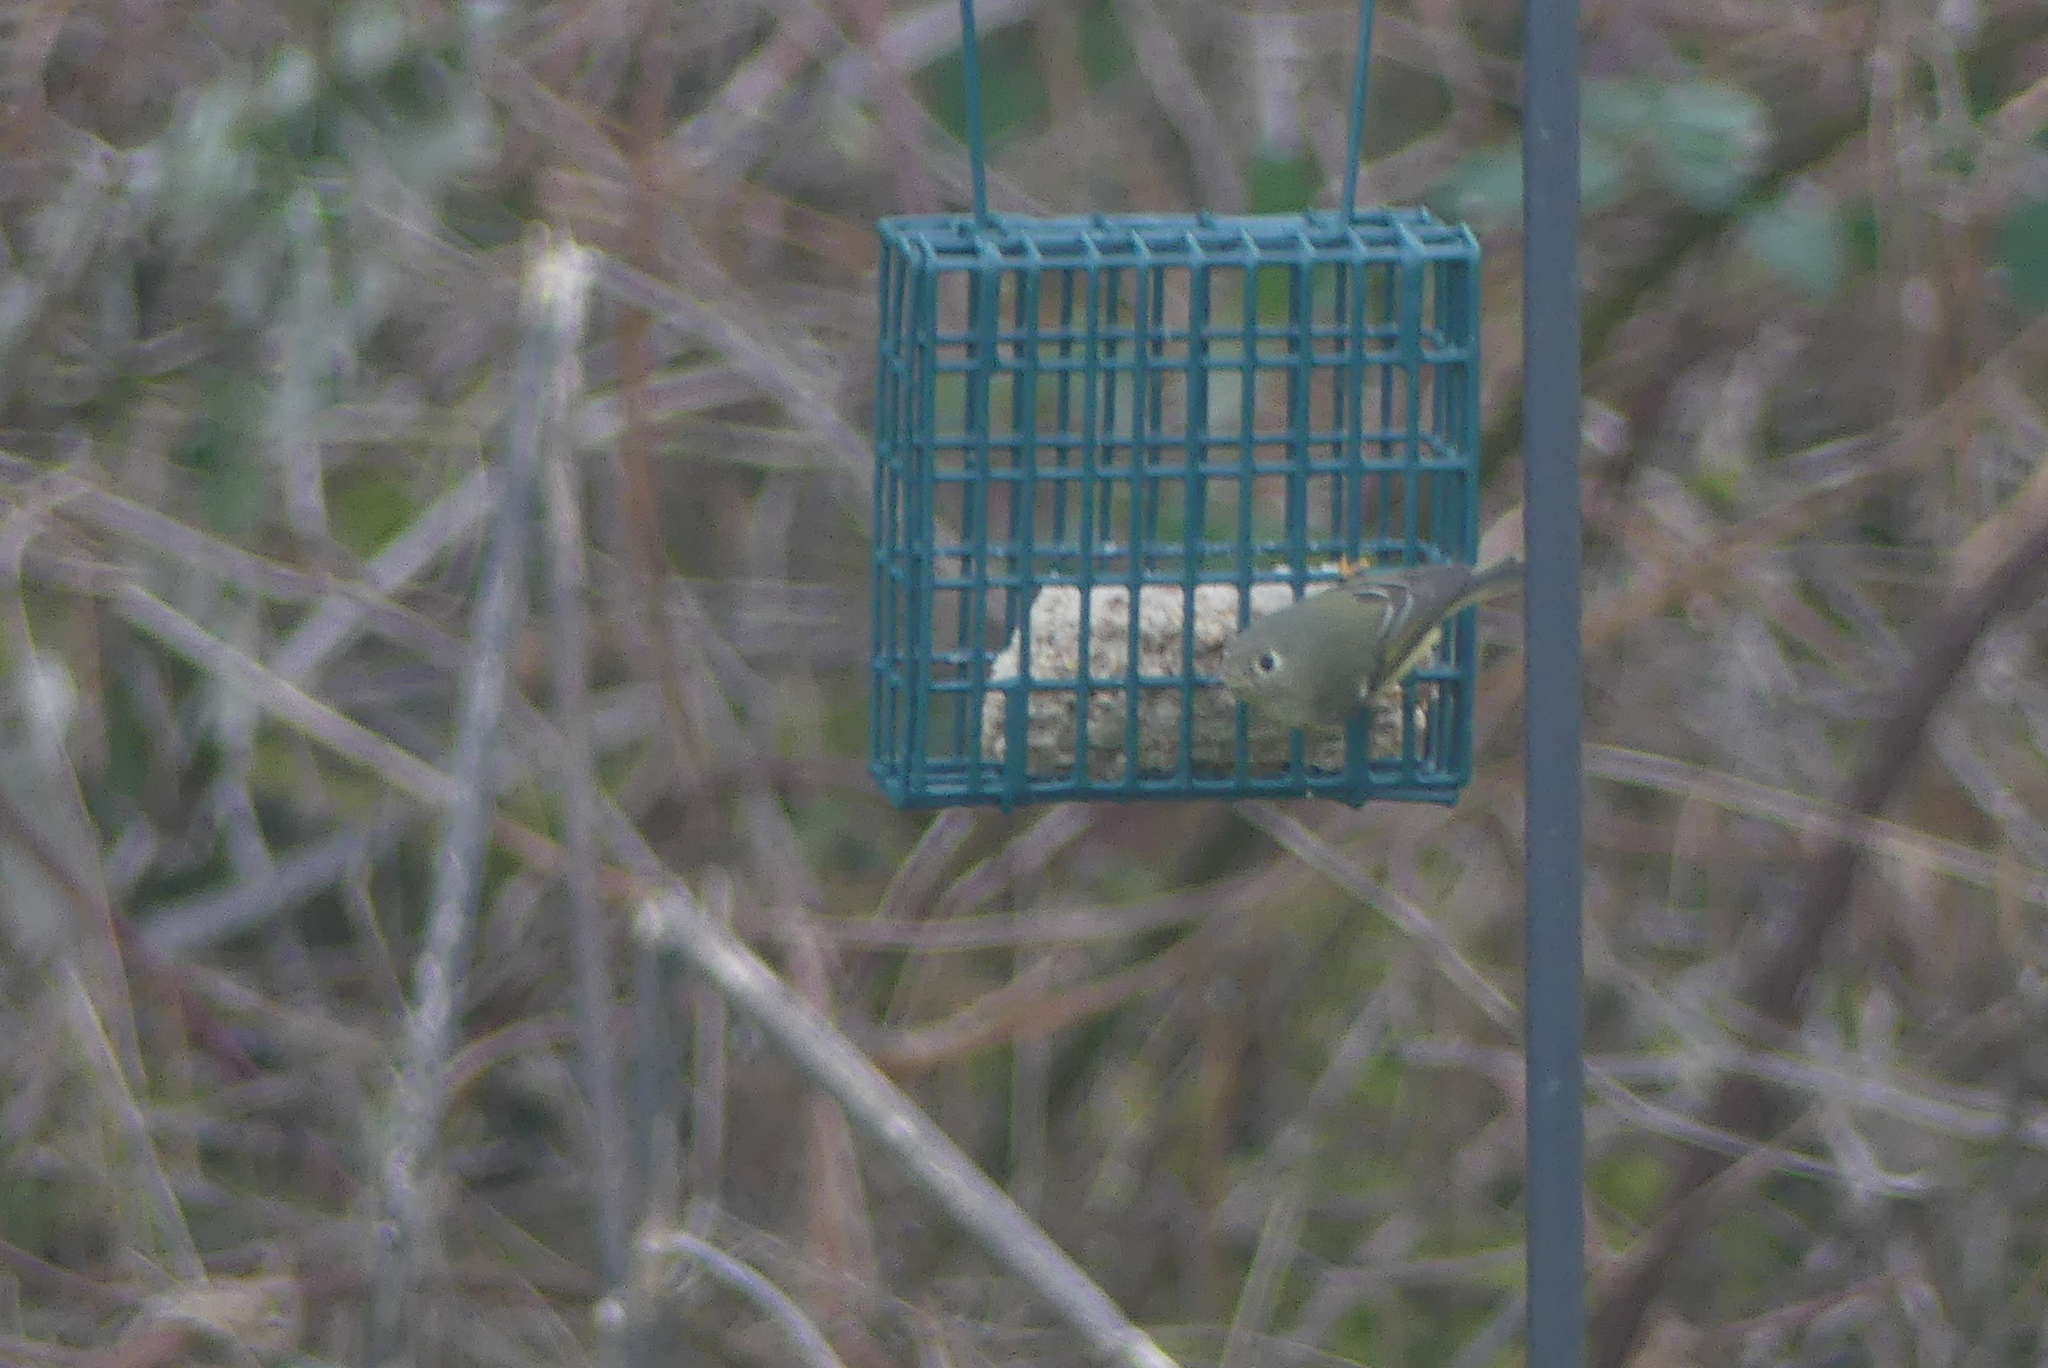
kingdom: Animalia
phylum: Chordata
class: Aves
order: Passeriformes
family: Regulidae
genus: Regulus
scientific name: Regulus calendula
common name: Ruby-crowned kinglet
